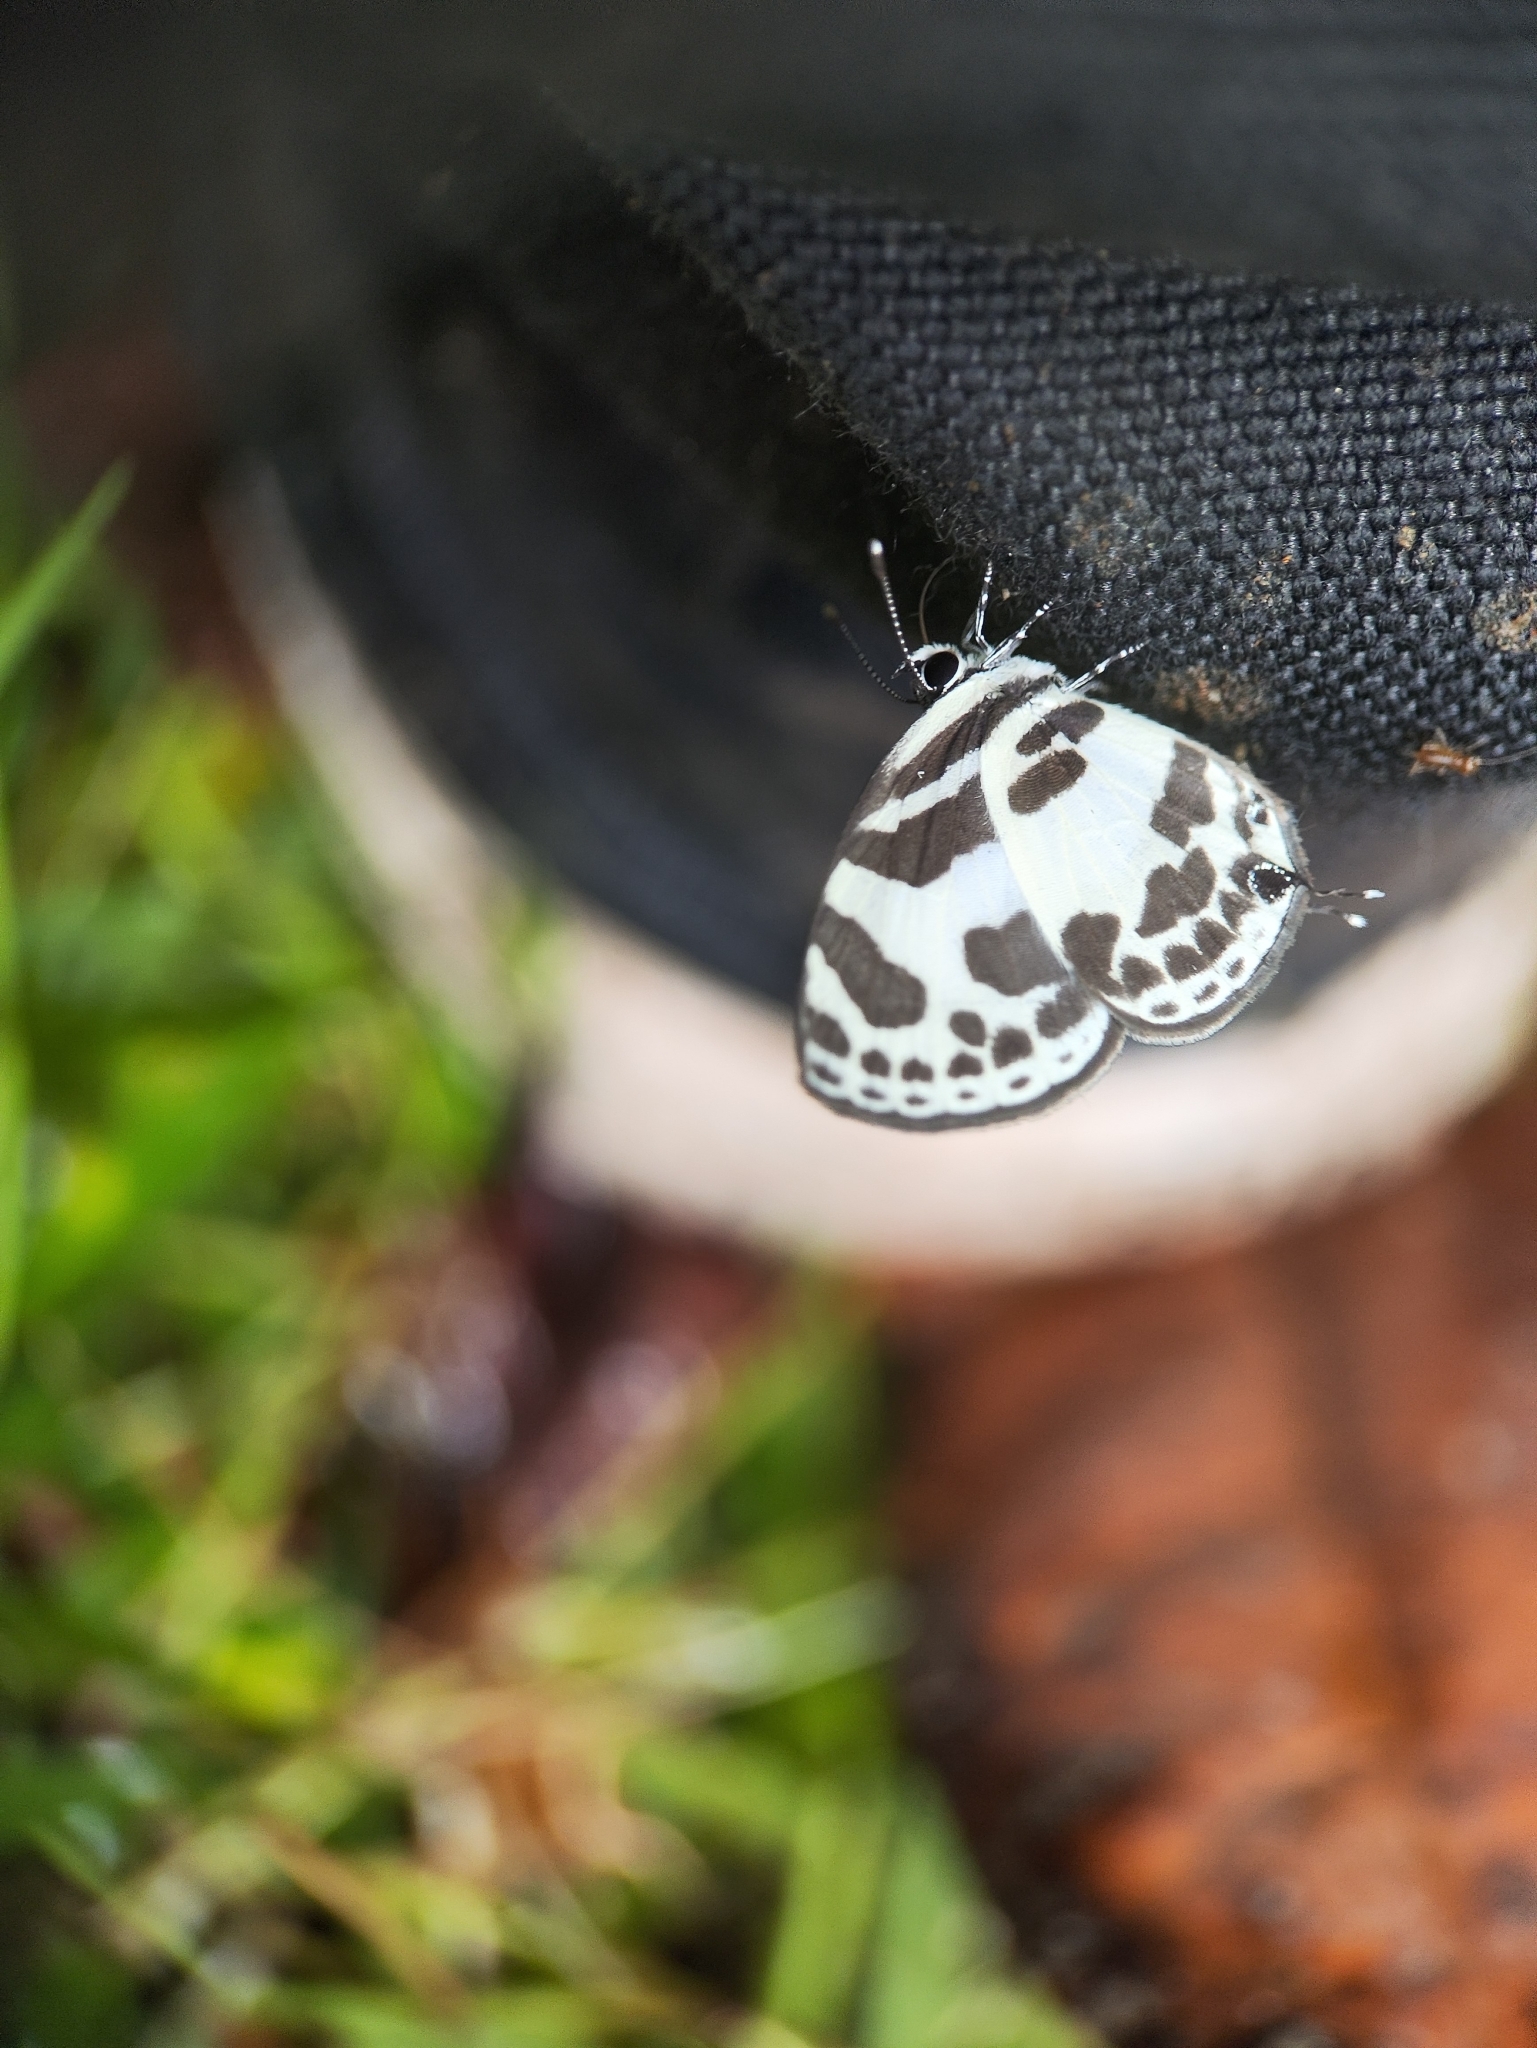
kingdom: Animalia
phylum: Arthropoda
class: Insecta
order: Lepidoptera
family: Lycaenidae
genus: Discolampa
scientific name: Discolampa ethion
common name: Banded blue pierrot
